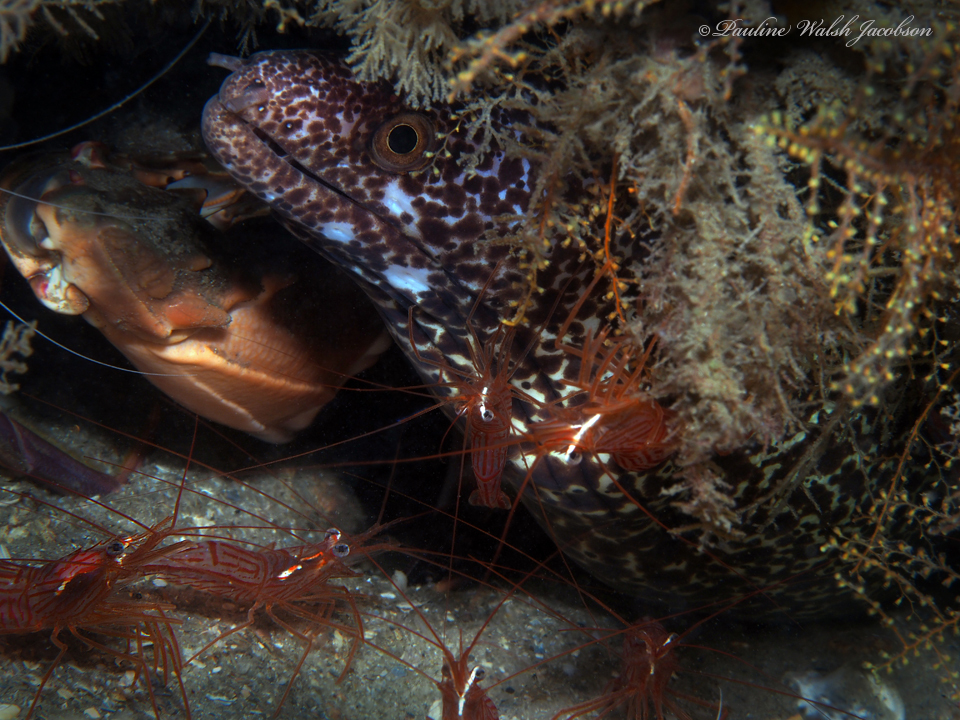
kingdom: Animalia
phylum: Arthropoda
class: Malacostraca
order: Decapoda
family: Lysmatidae
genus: Lysmata
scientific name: Lysmata rafa
